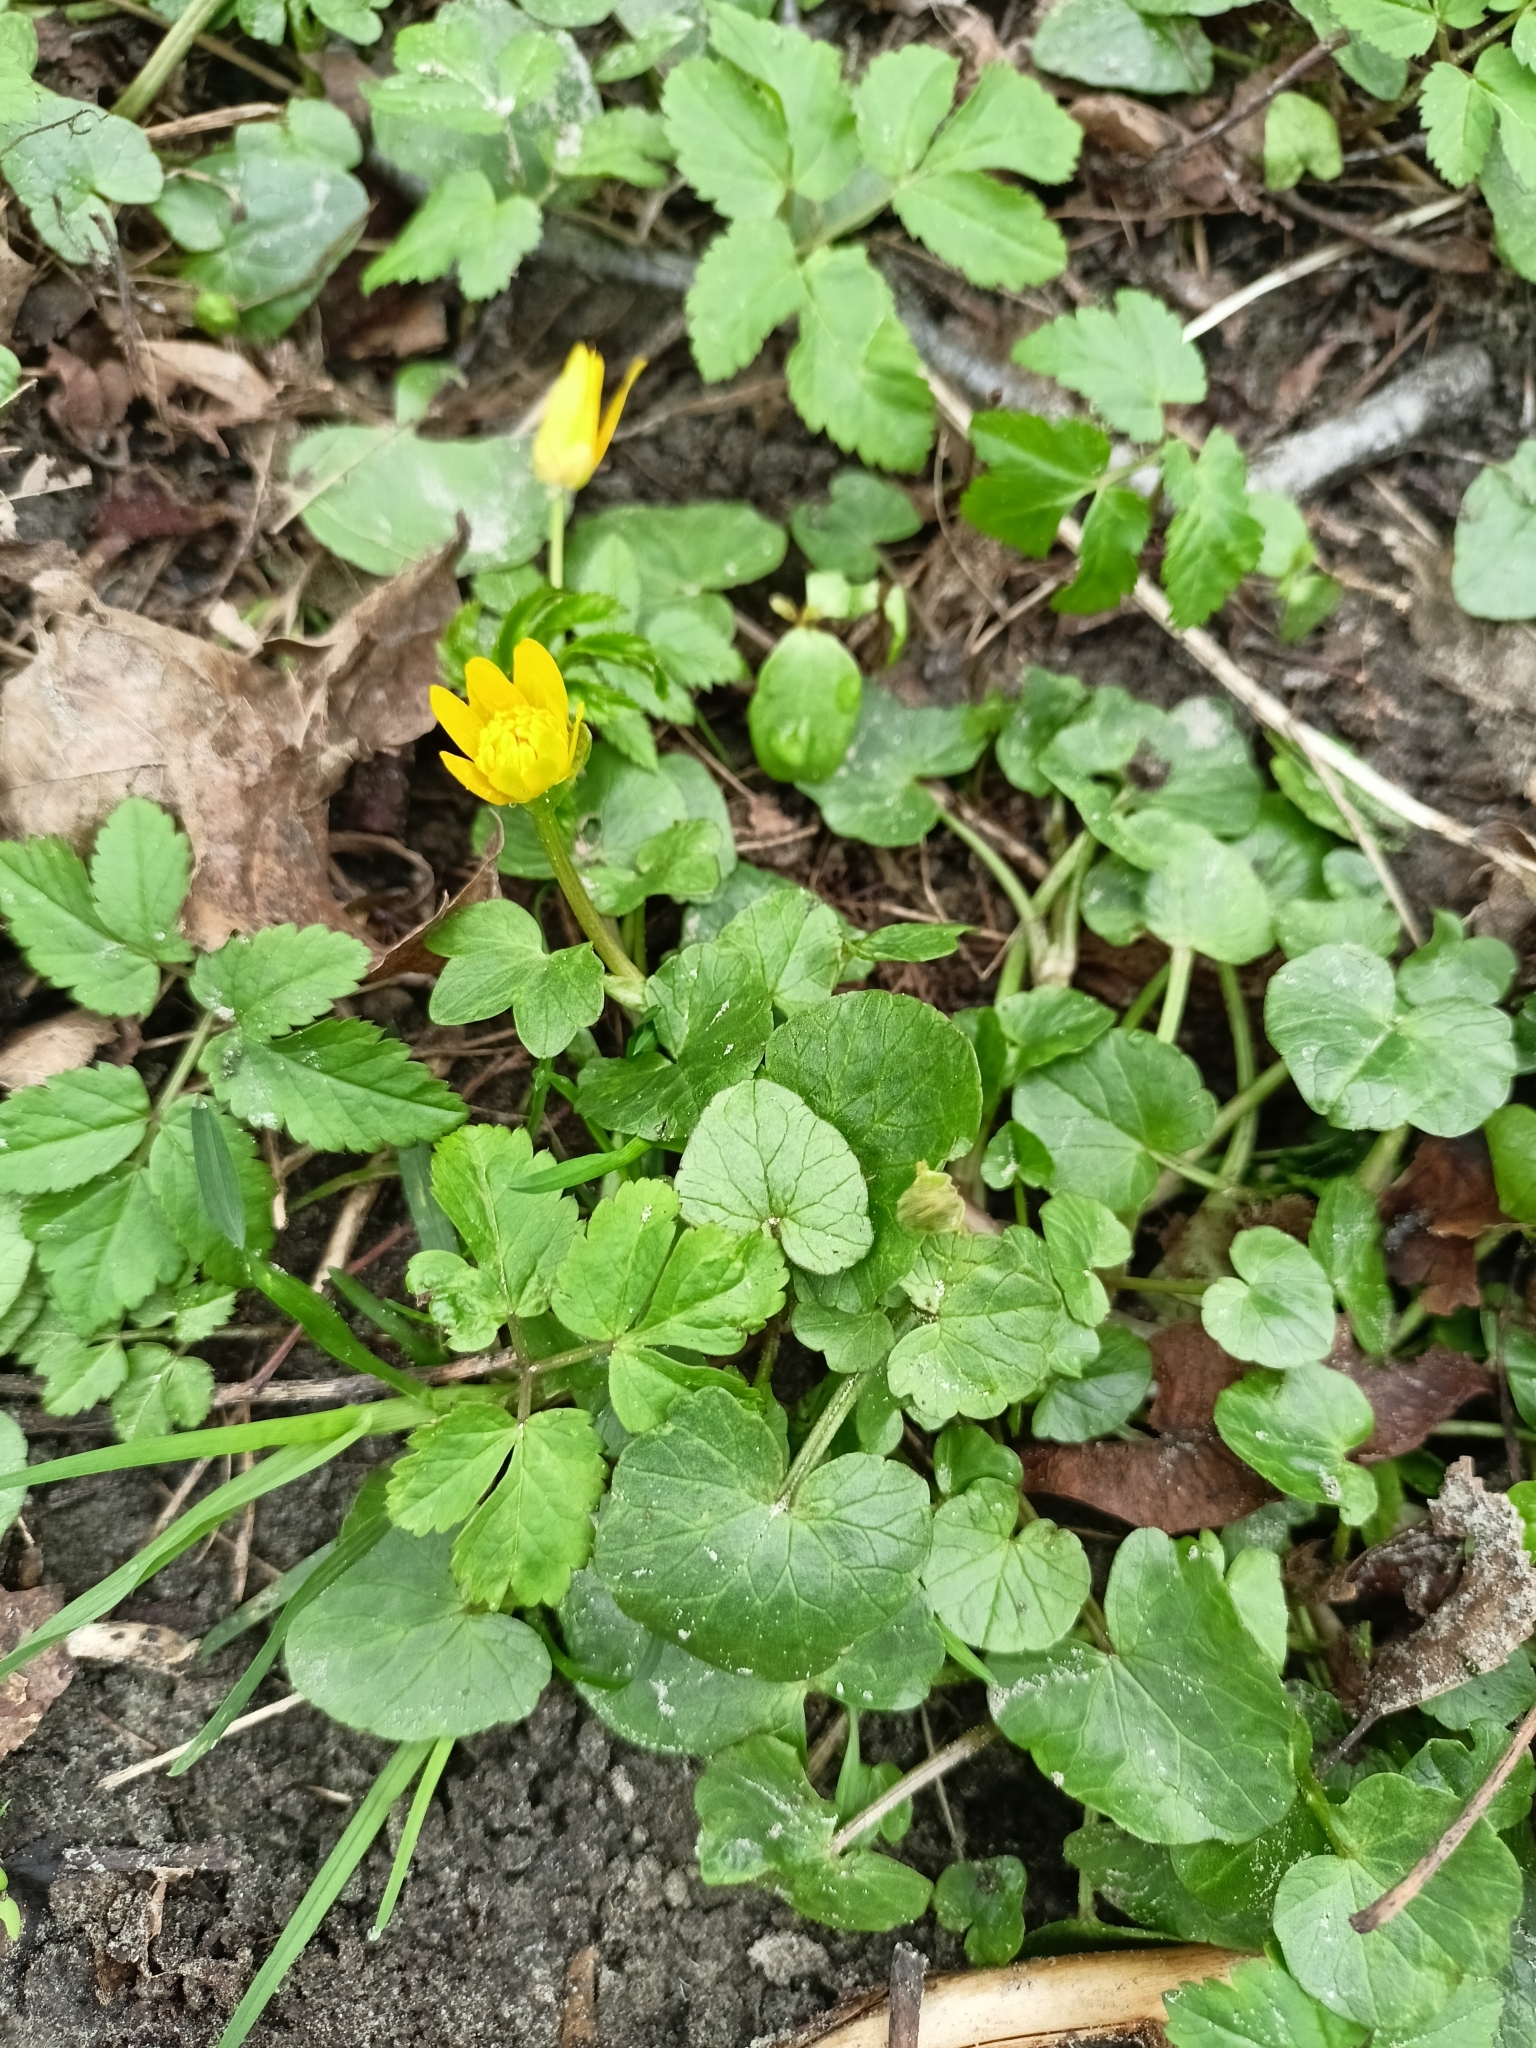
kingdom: Plantae
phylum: Tracheophyta
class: Magnoliopsida
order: Ranunculales
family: Ranunculaceae
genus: Ficaria
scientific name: Ficaria verna
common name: Lesser celandine
